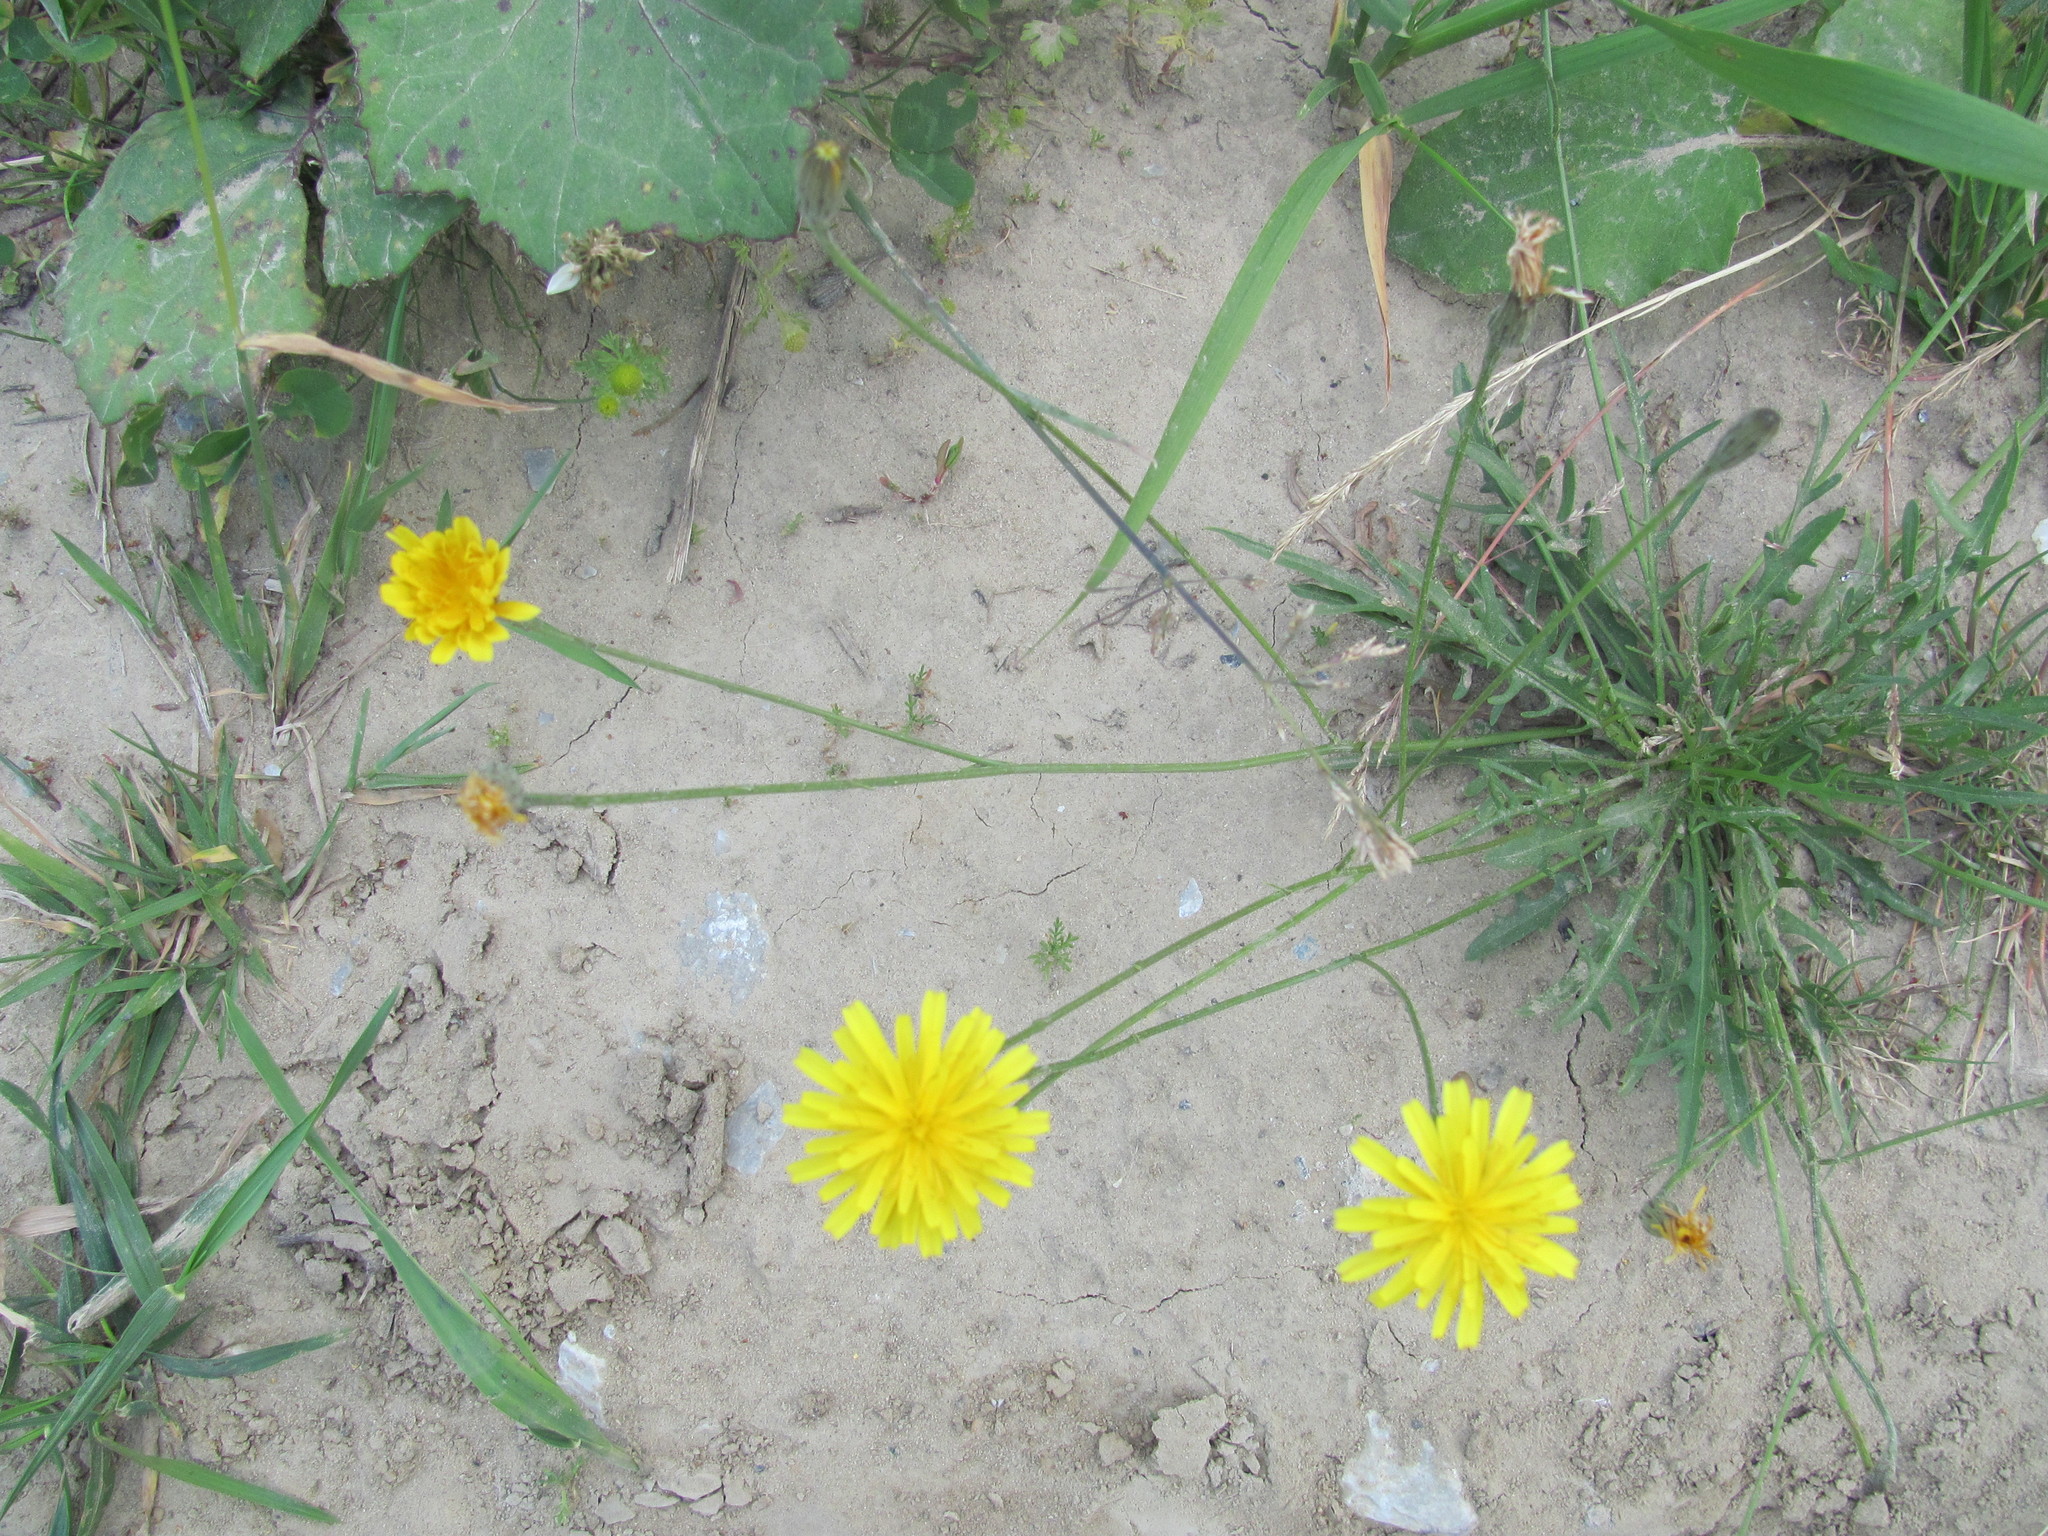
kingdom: Plantae
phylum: Tracheophyta
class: Magnoliopsida
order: Asterales
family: Asteraceae
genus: Scorzoneroides
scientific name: Scorzoneroides autumnalis
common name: Autumn hawkbit
